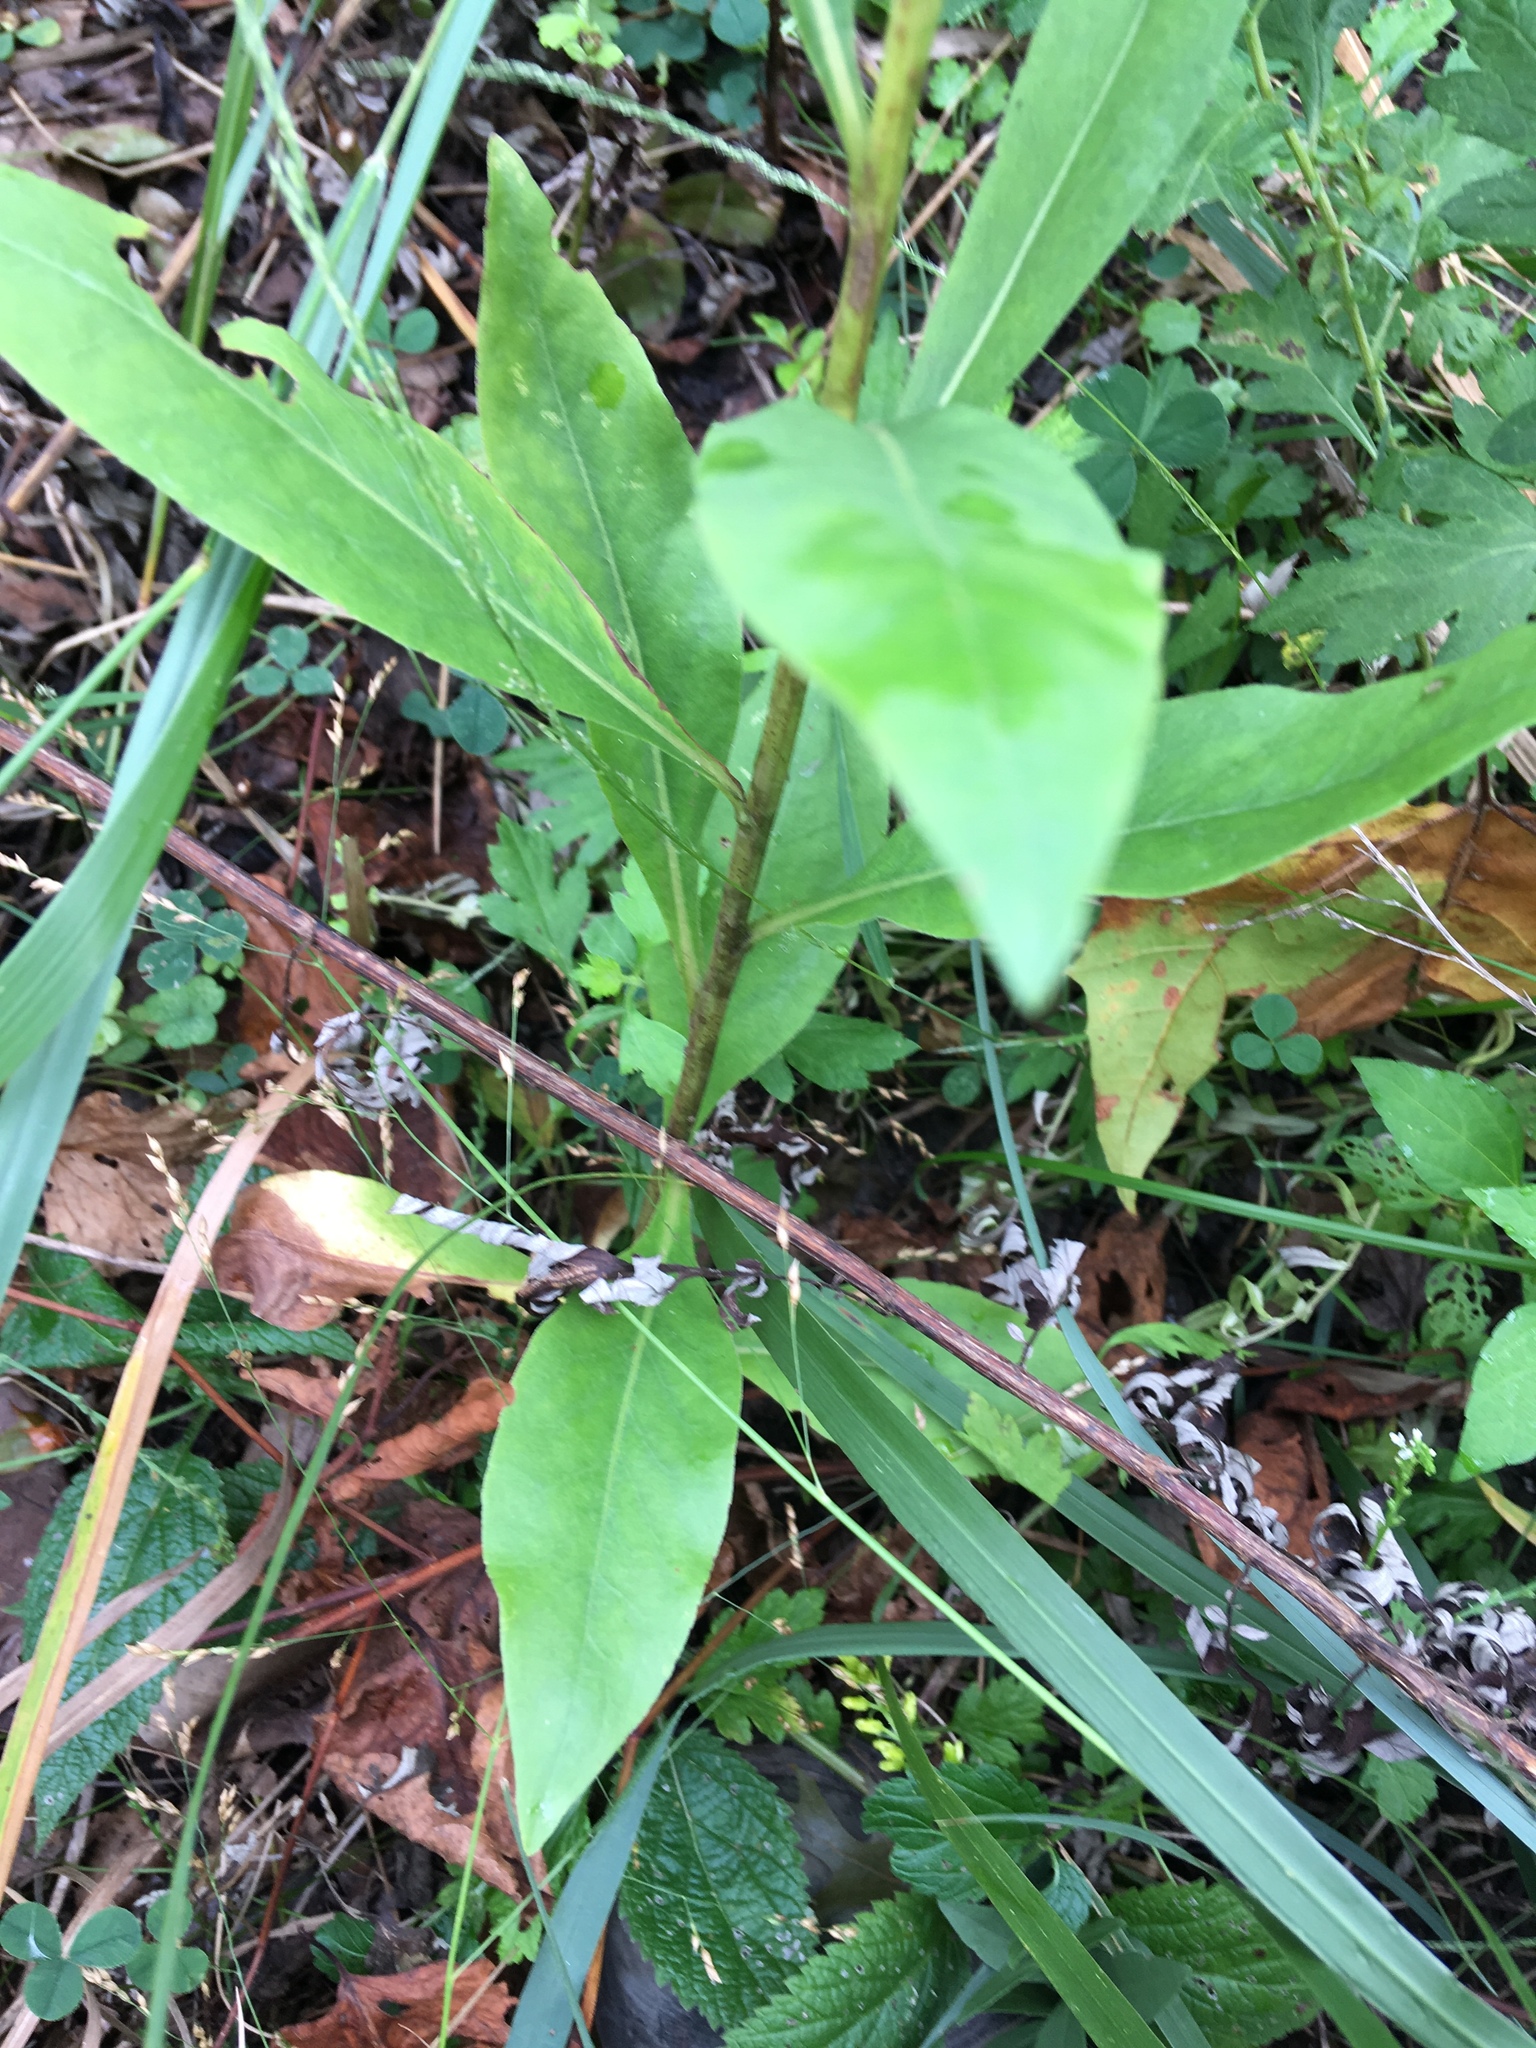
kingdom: Plantae
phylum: Tracheophyta
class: Magnoliopsida
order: Asterales
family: Asteraceae
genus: Solidago
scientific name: Solidago speciosa
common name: Showy goldenrod
